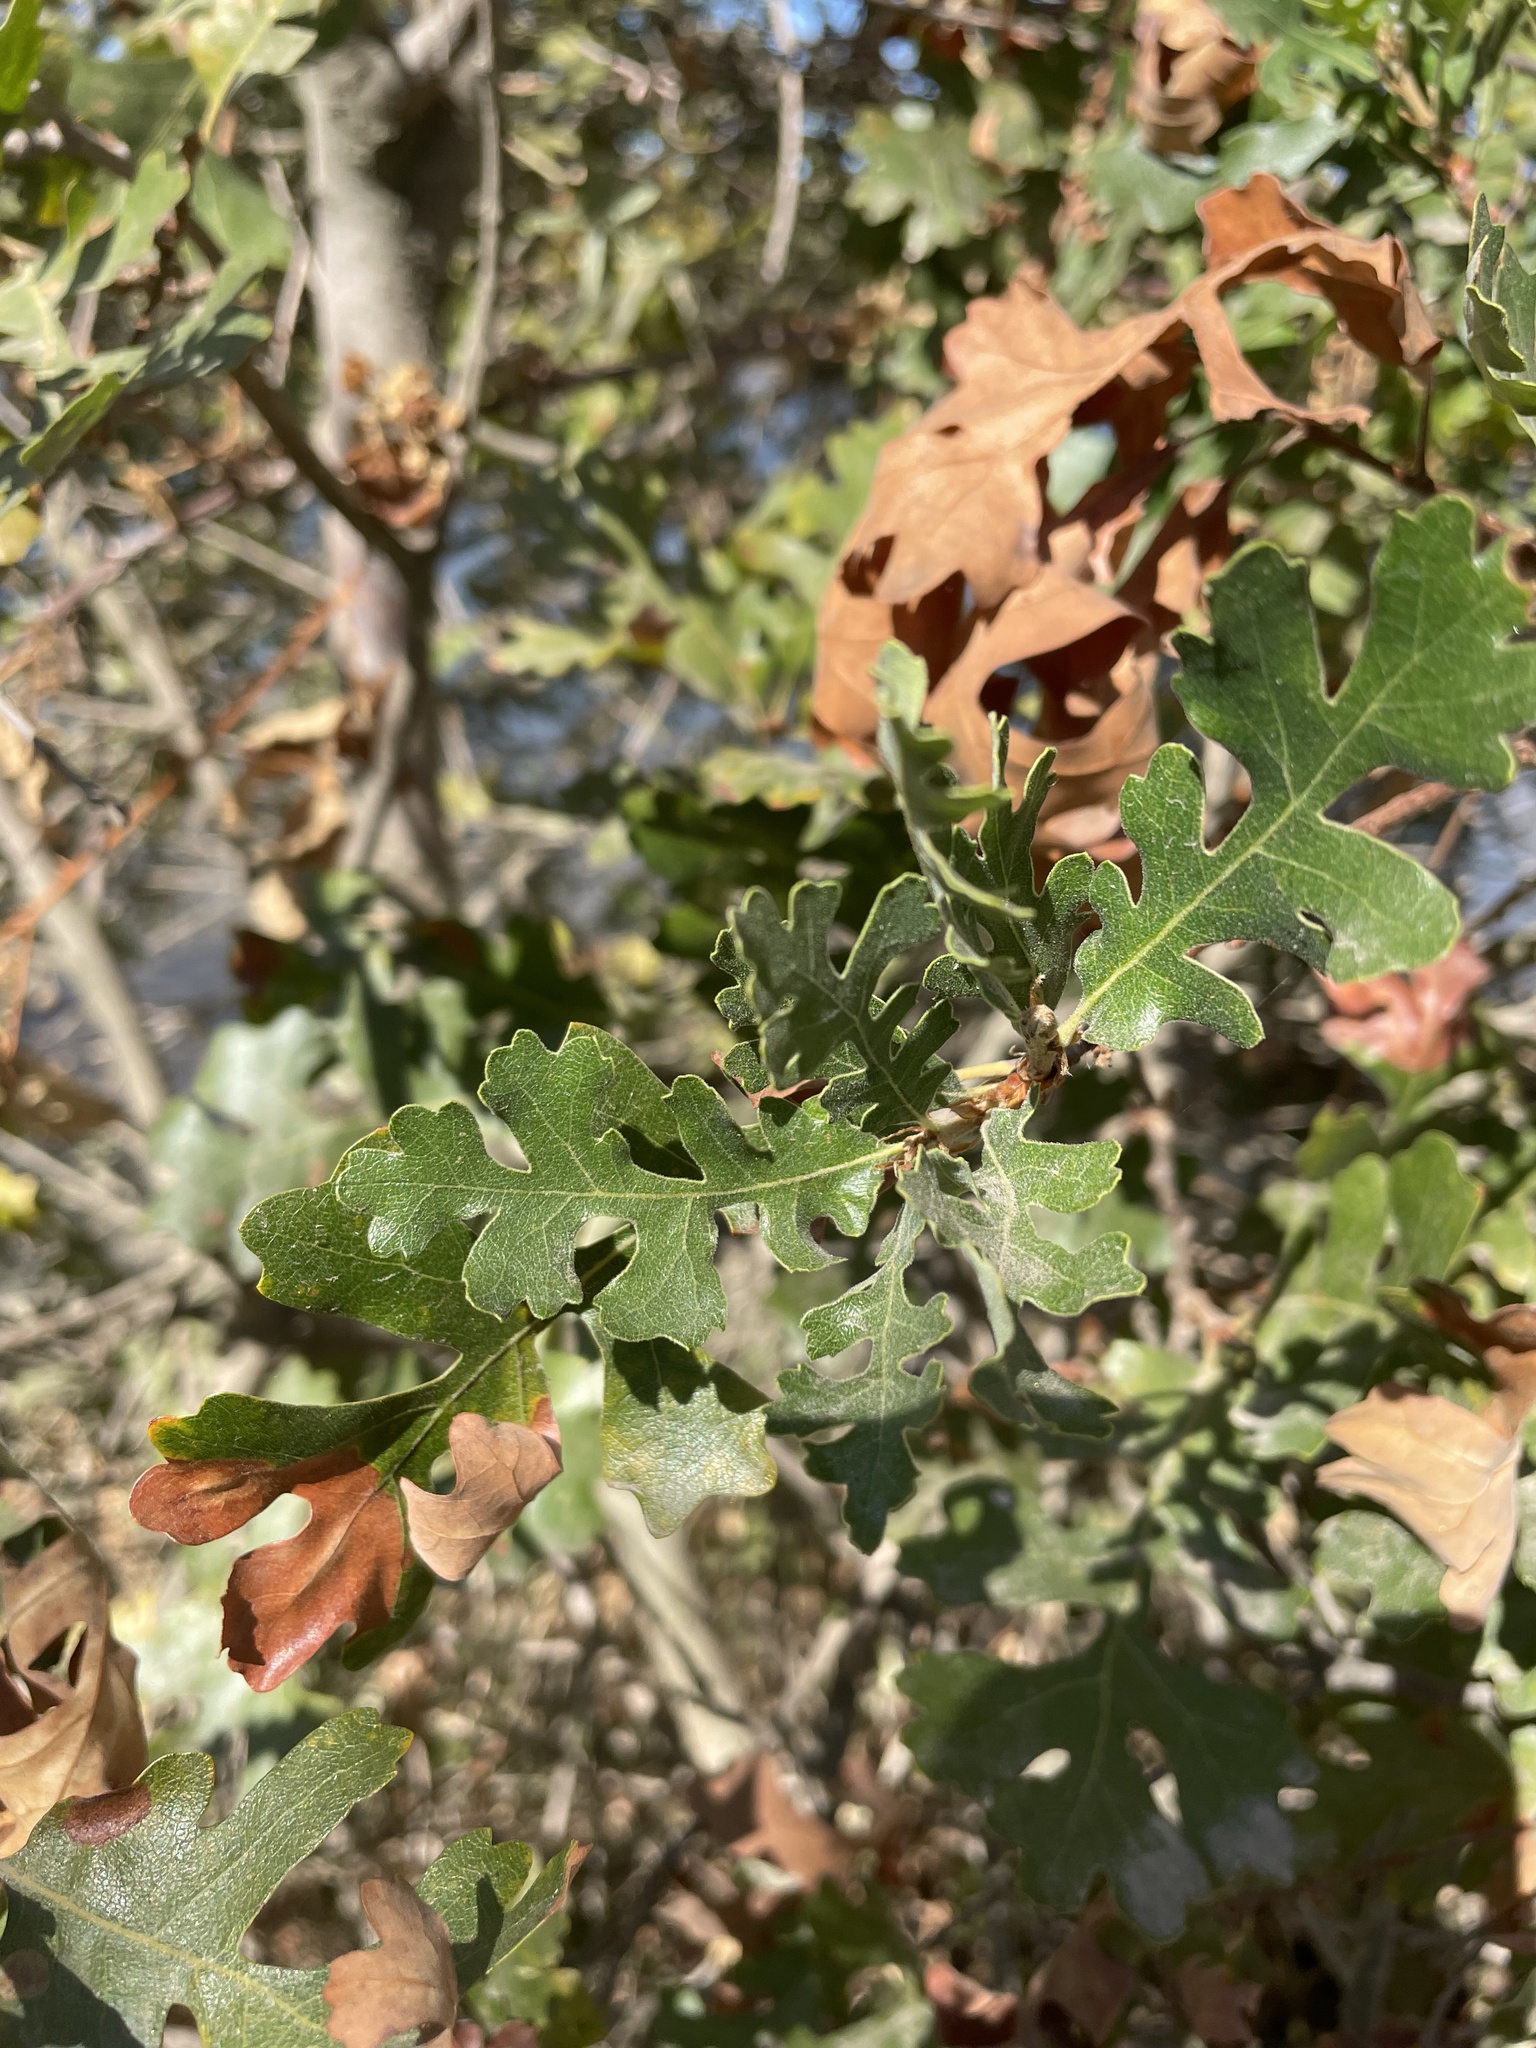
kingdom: Plantae
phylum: Tracheophyta
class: Magnoliopsida
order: Fagales
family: Fagaceae
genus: Quercus
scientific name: Quercus lobata
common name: Valley oak
